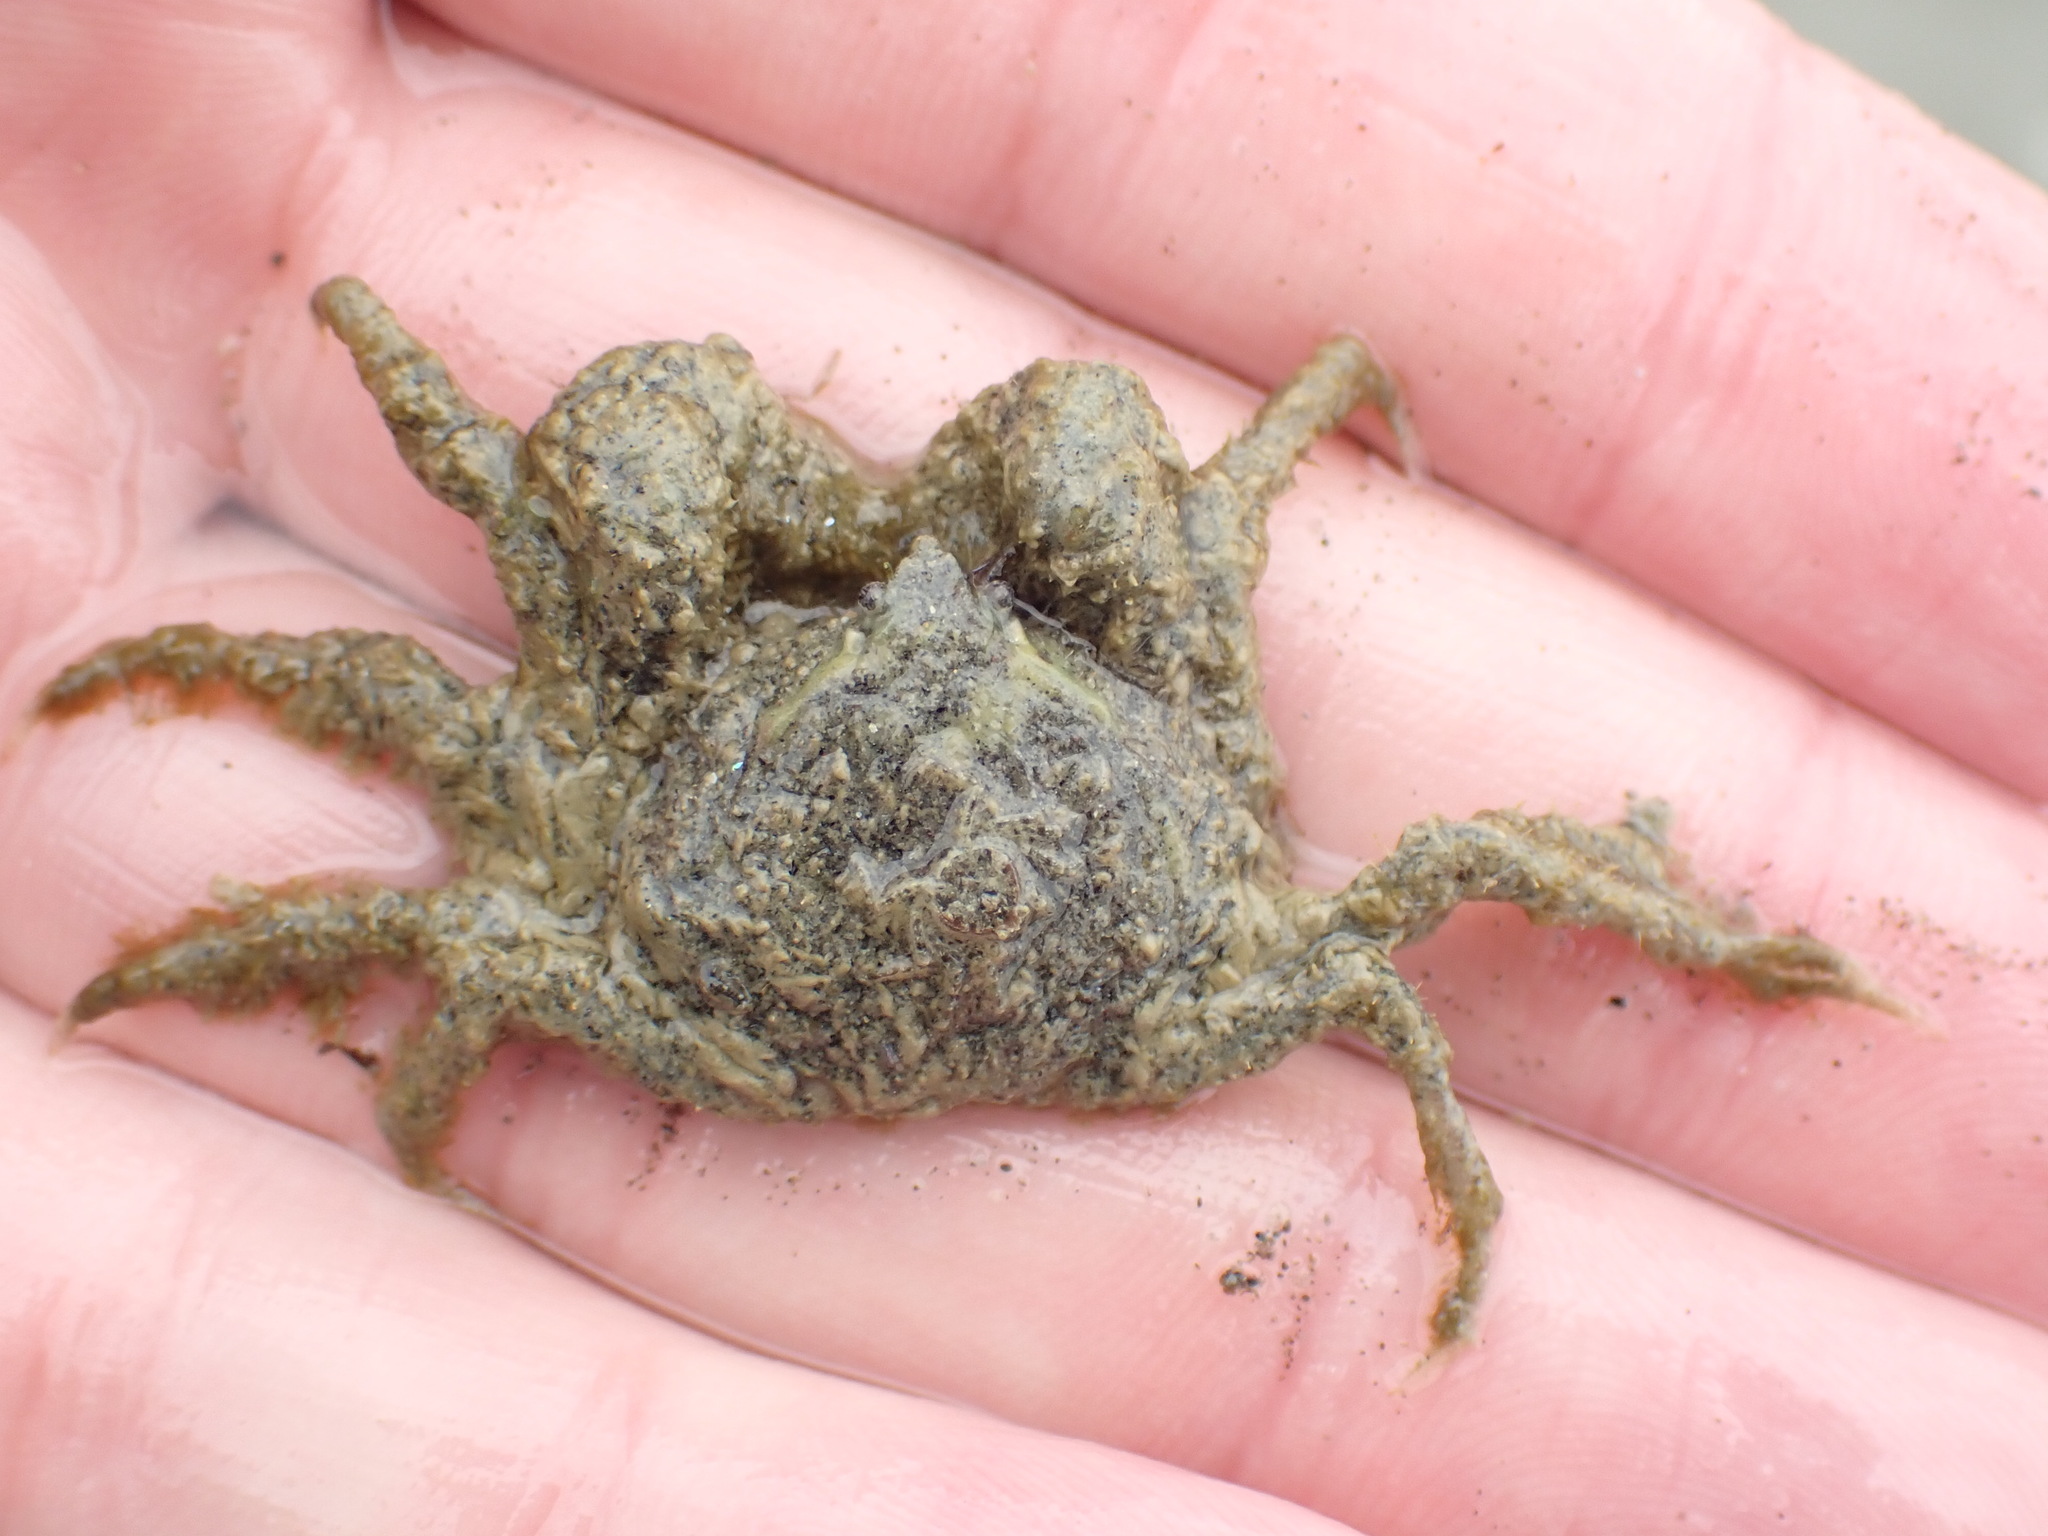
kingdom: Animalia
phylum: Arthropoda
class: Malacostraca
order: Decapoda
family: Hymenosomatidae
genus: Halicarcinus
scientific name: Halicarcinus whitei
